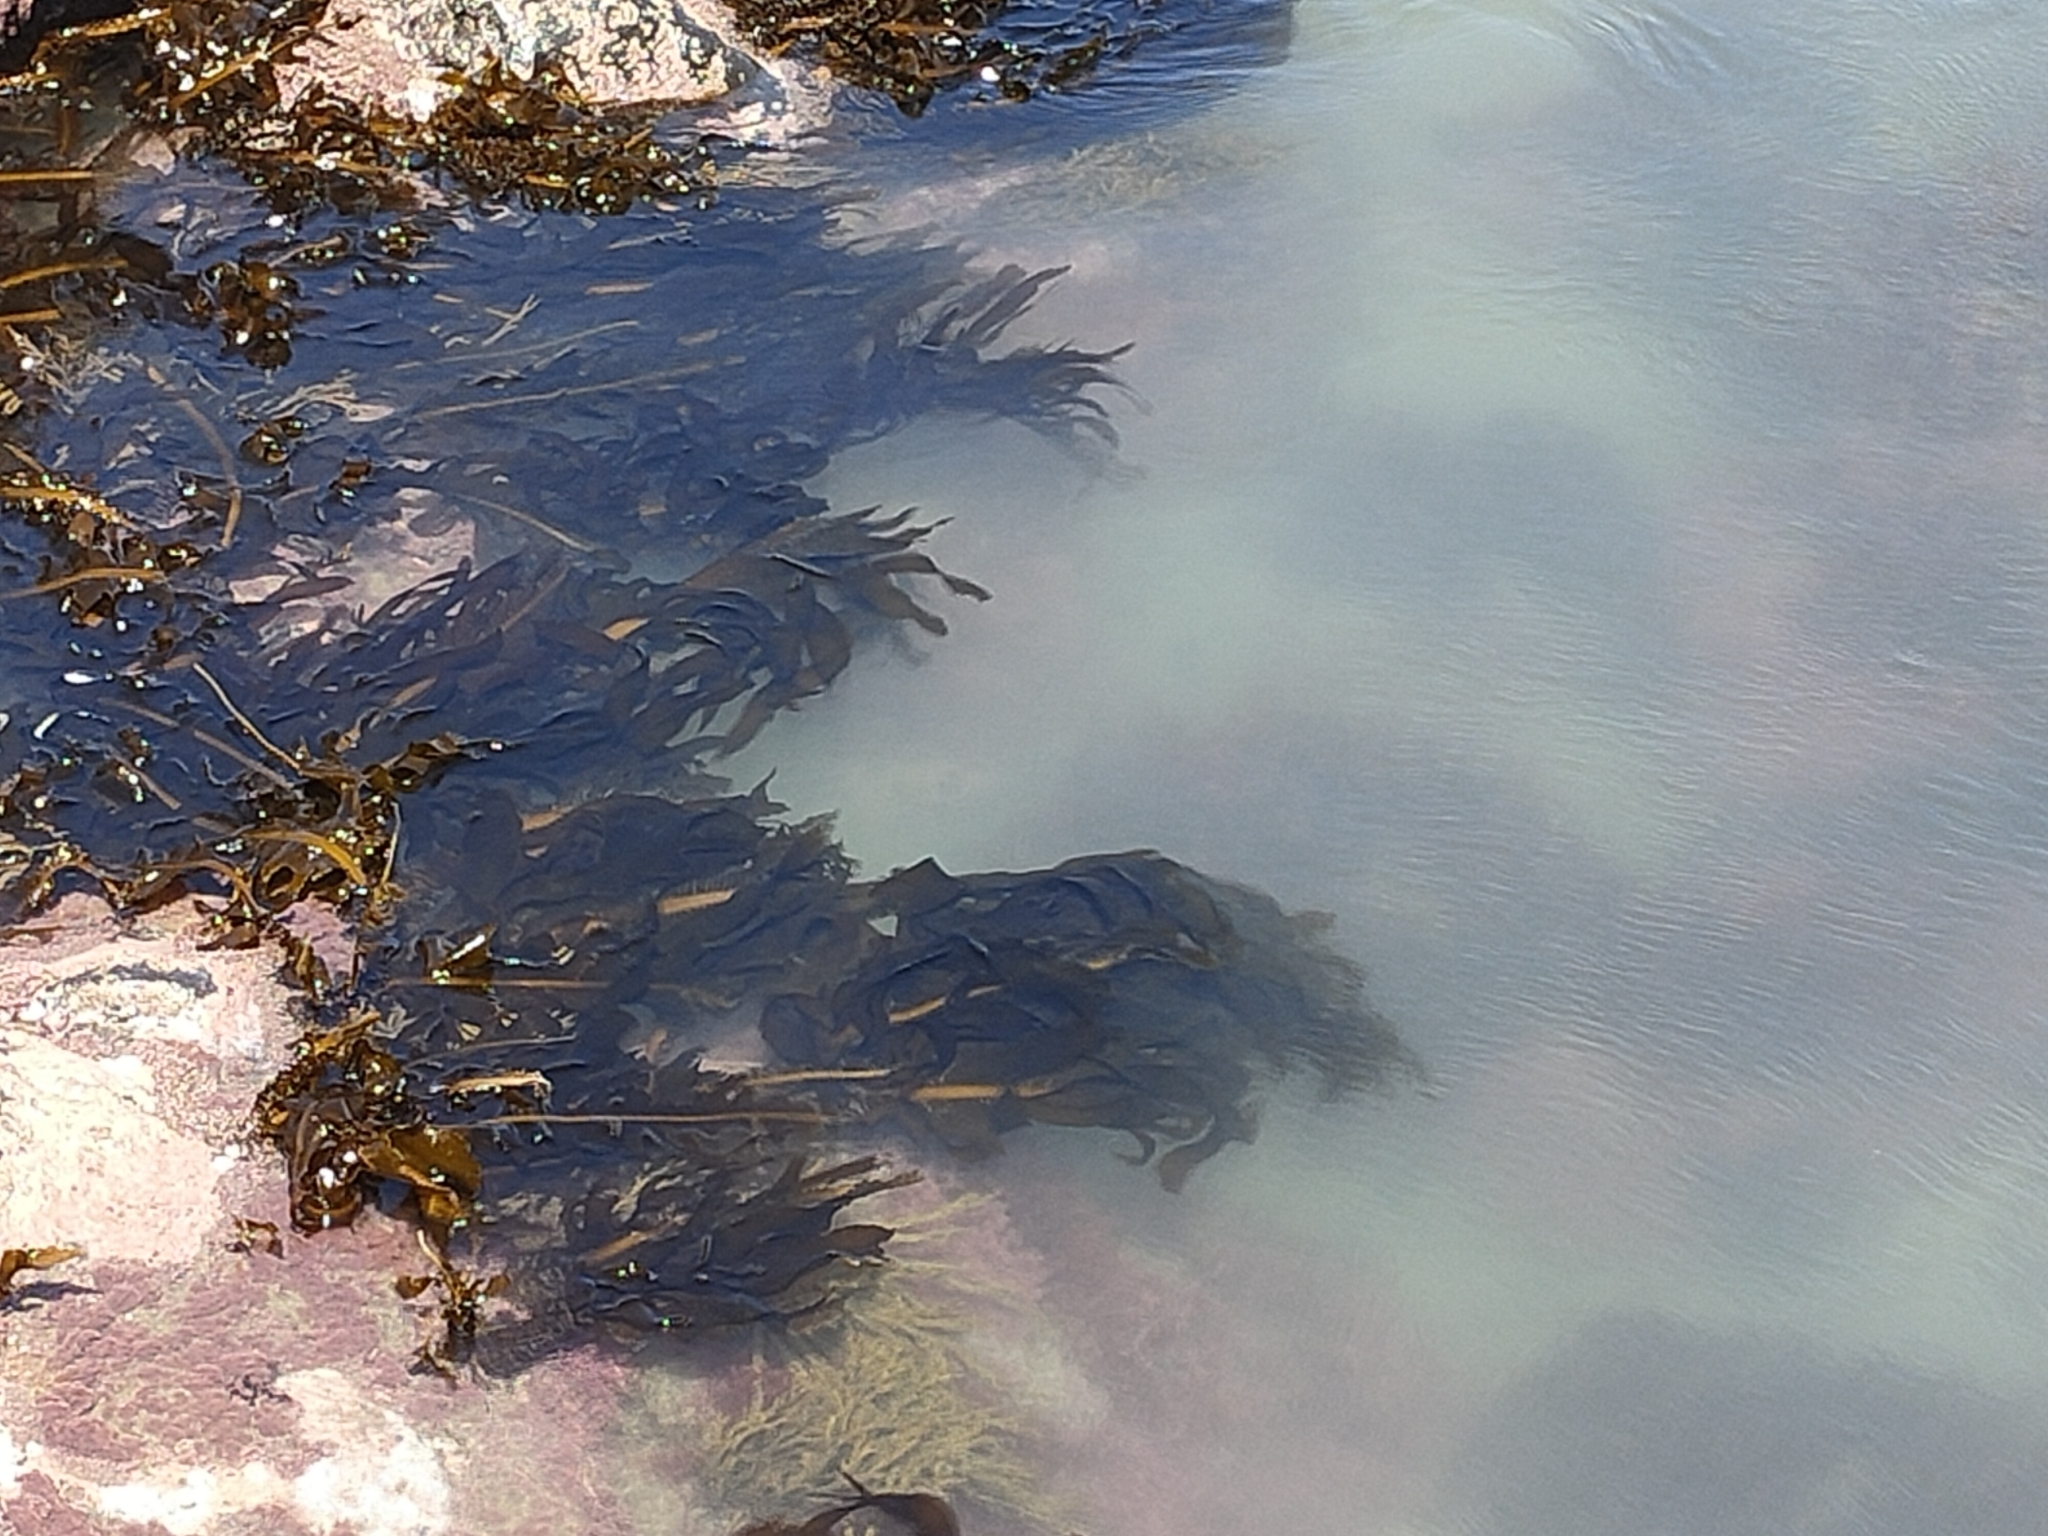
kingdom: Chromista
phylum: Ochrophyta
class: Phaeophyceae
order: Laminariales
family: Alariaceae
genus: Undaria
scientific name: Undaria pinnatifida
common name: Asian kelp
